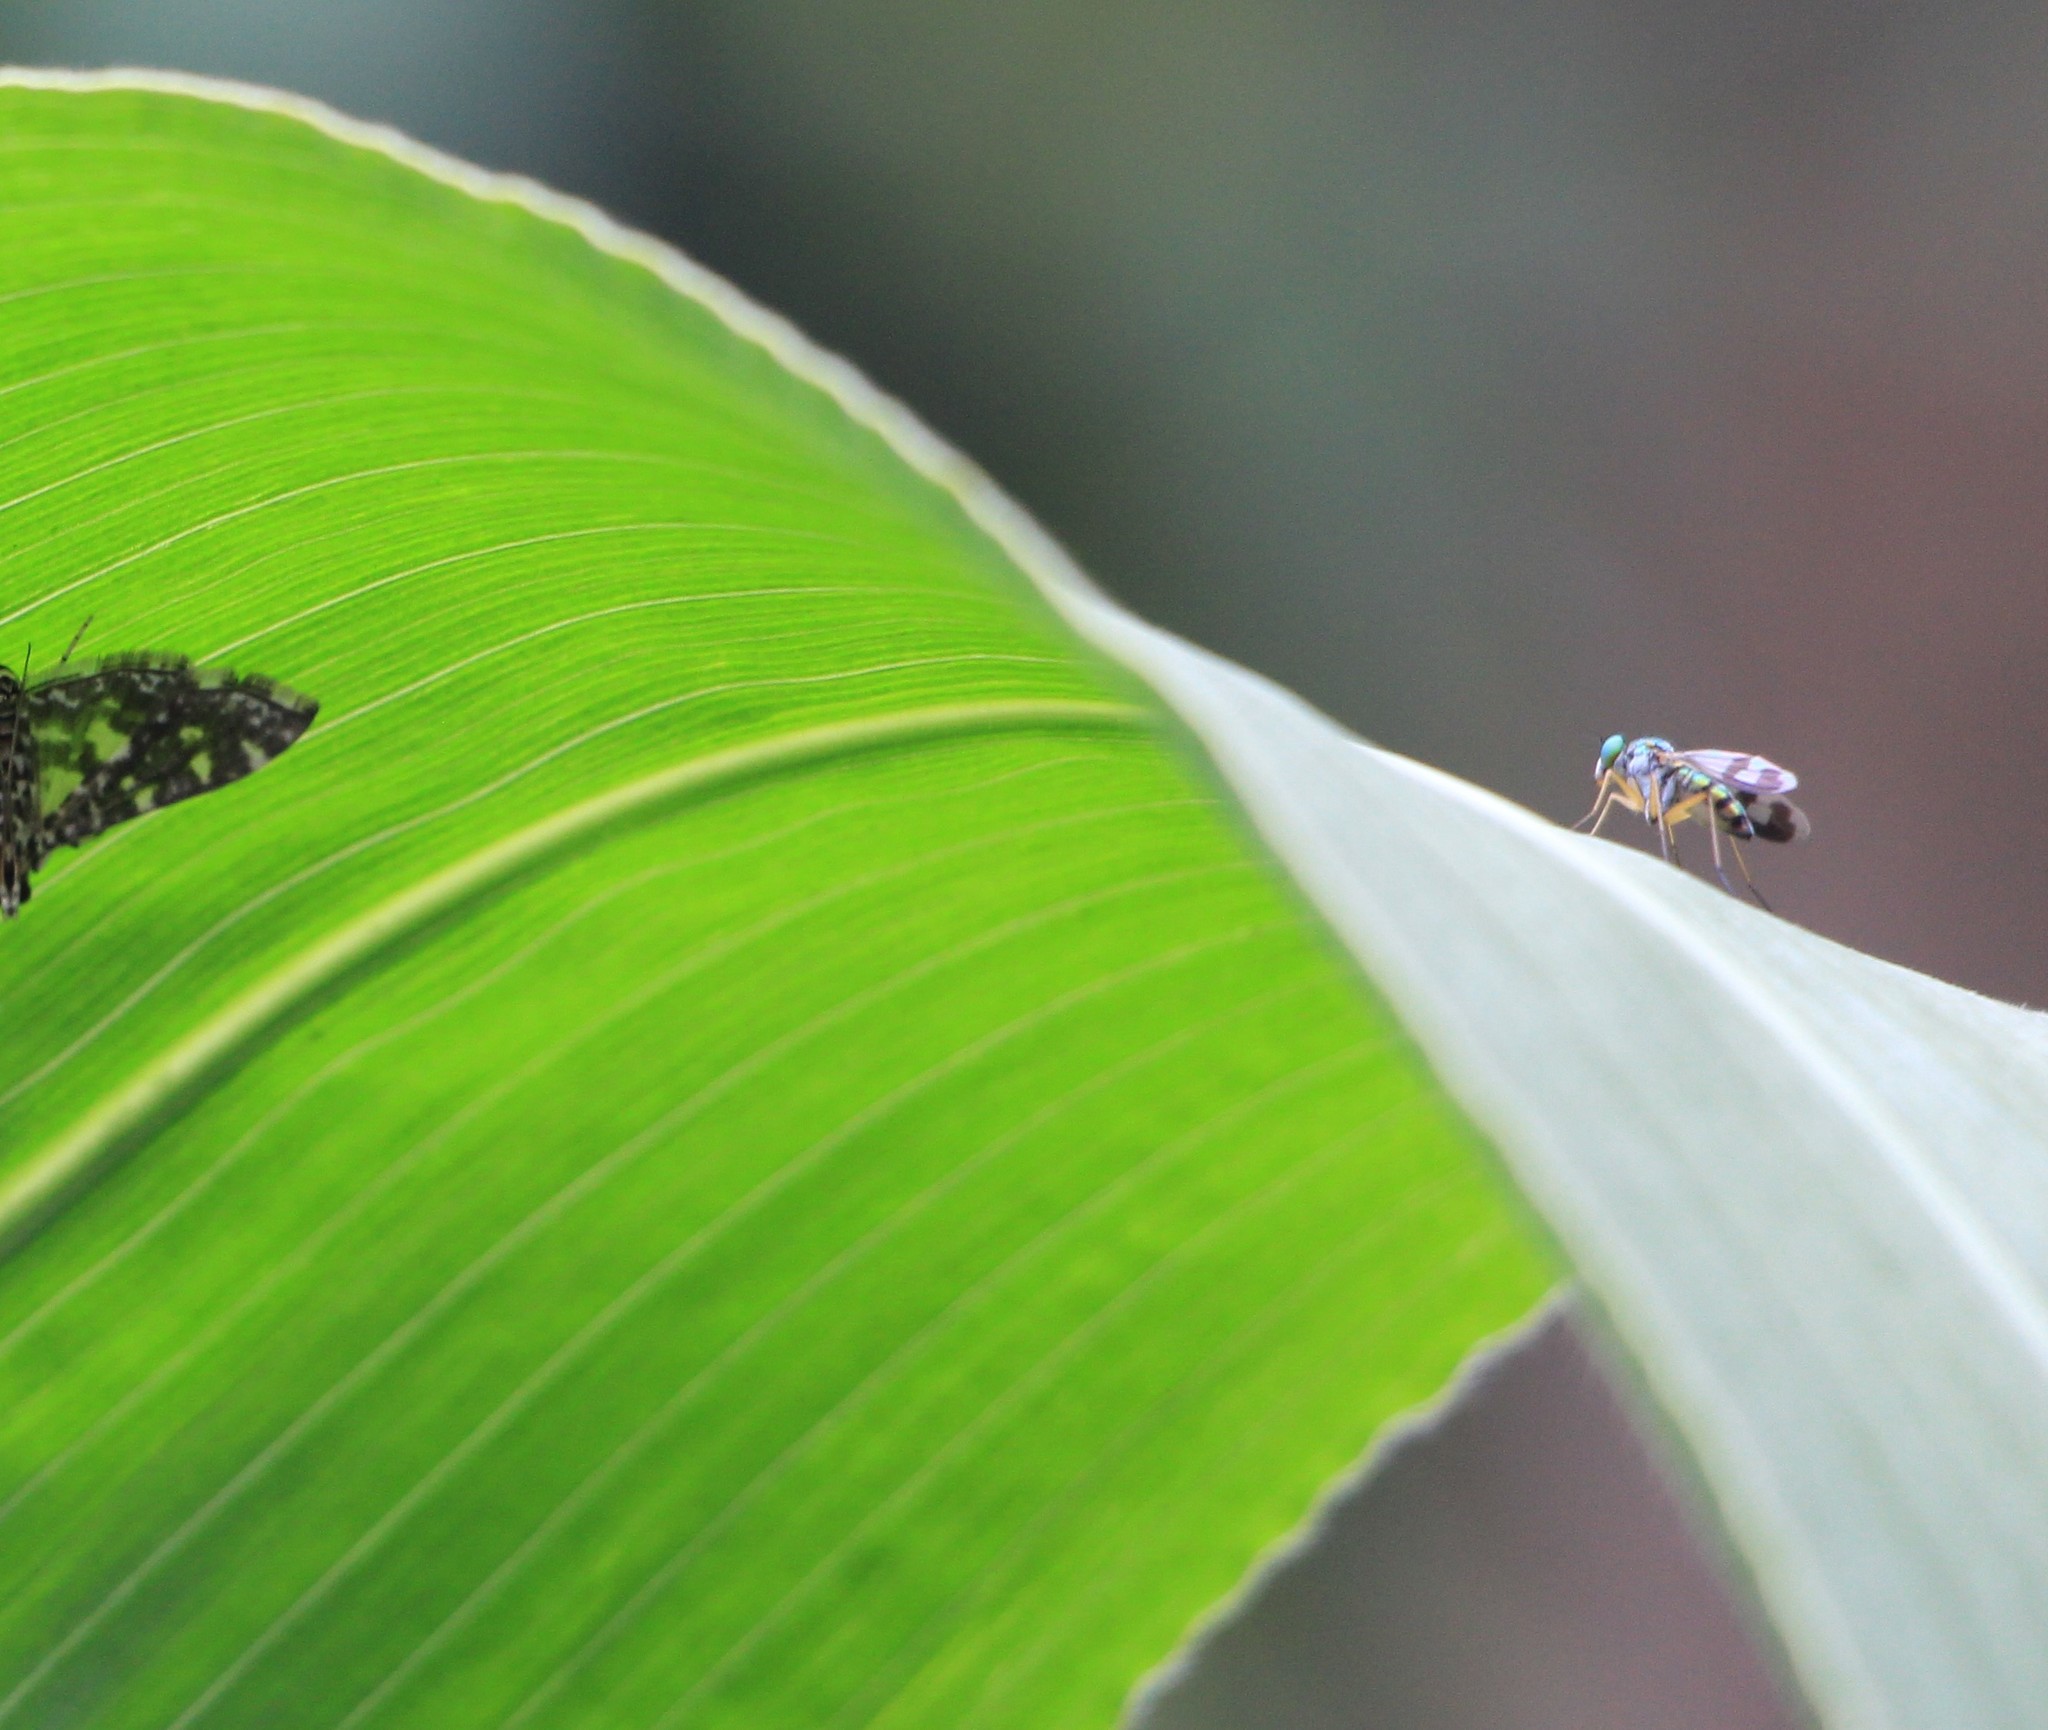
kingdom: Animalia
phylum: Arthropoda
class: Insecta
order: Diptera
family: Dolichopodidae
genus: Austrosciapus
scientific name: Austrosciapus proximus
